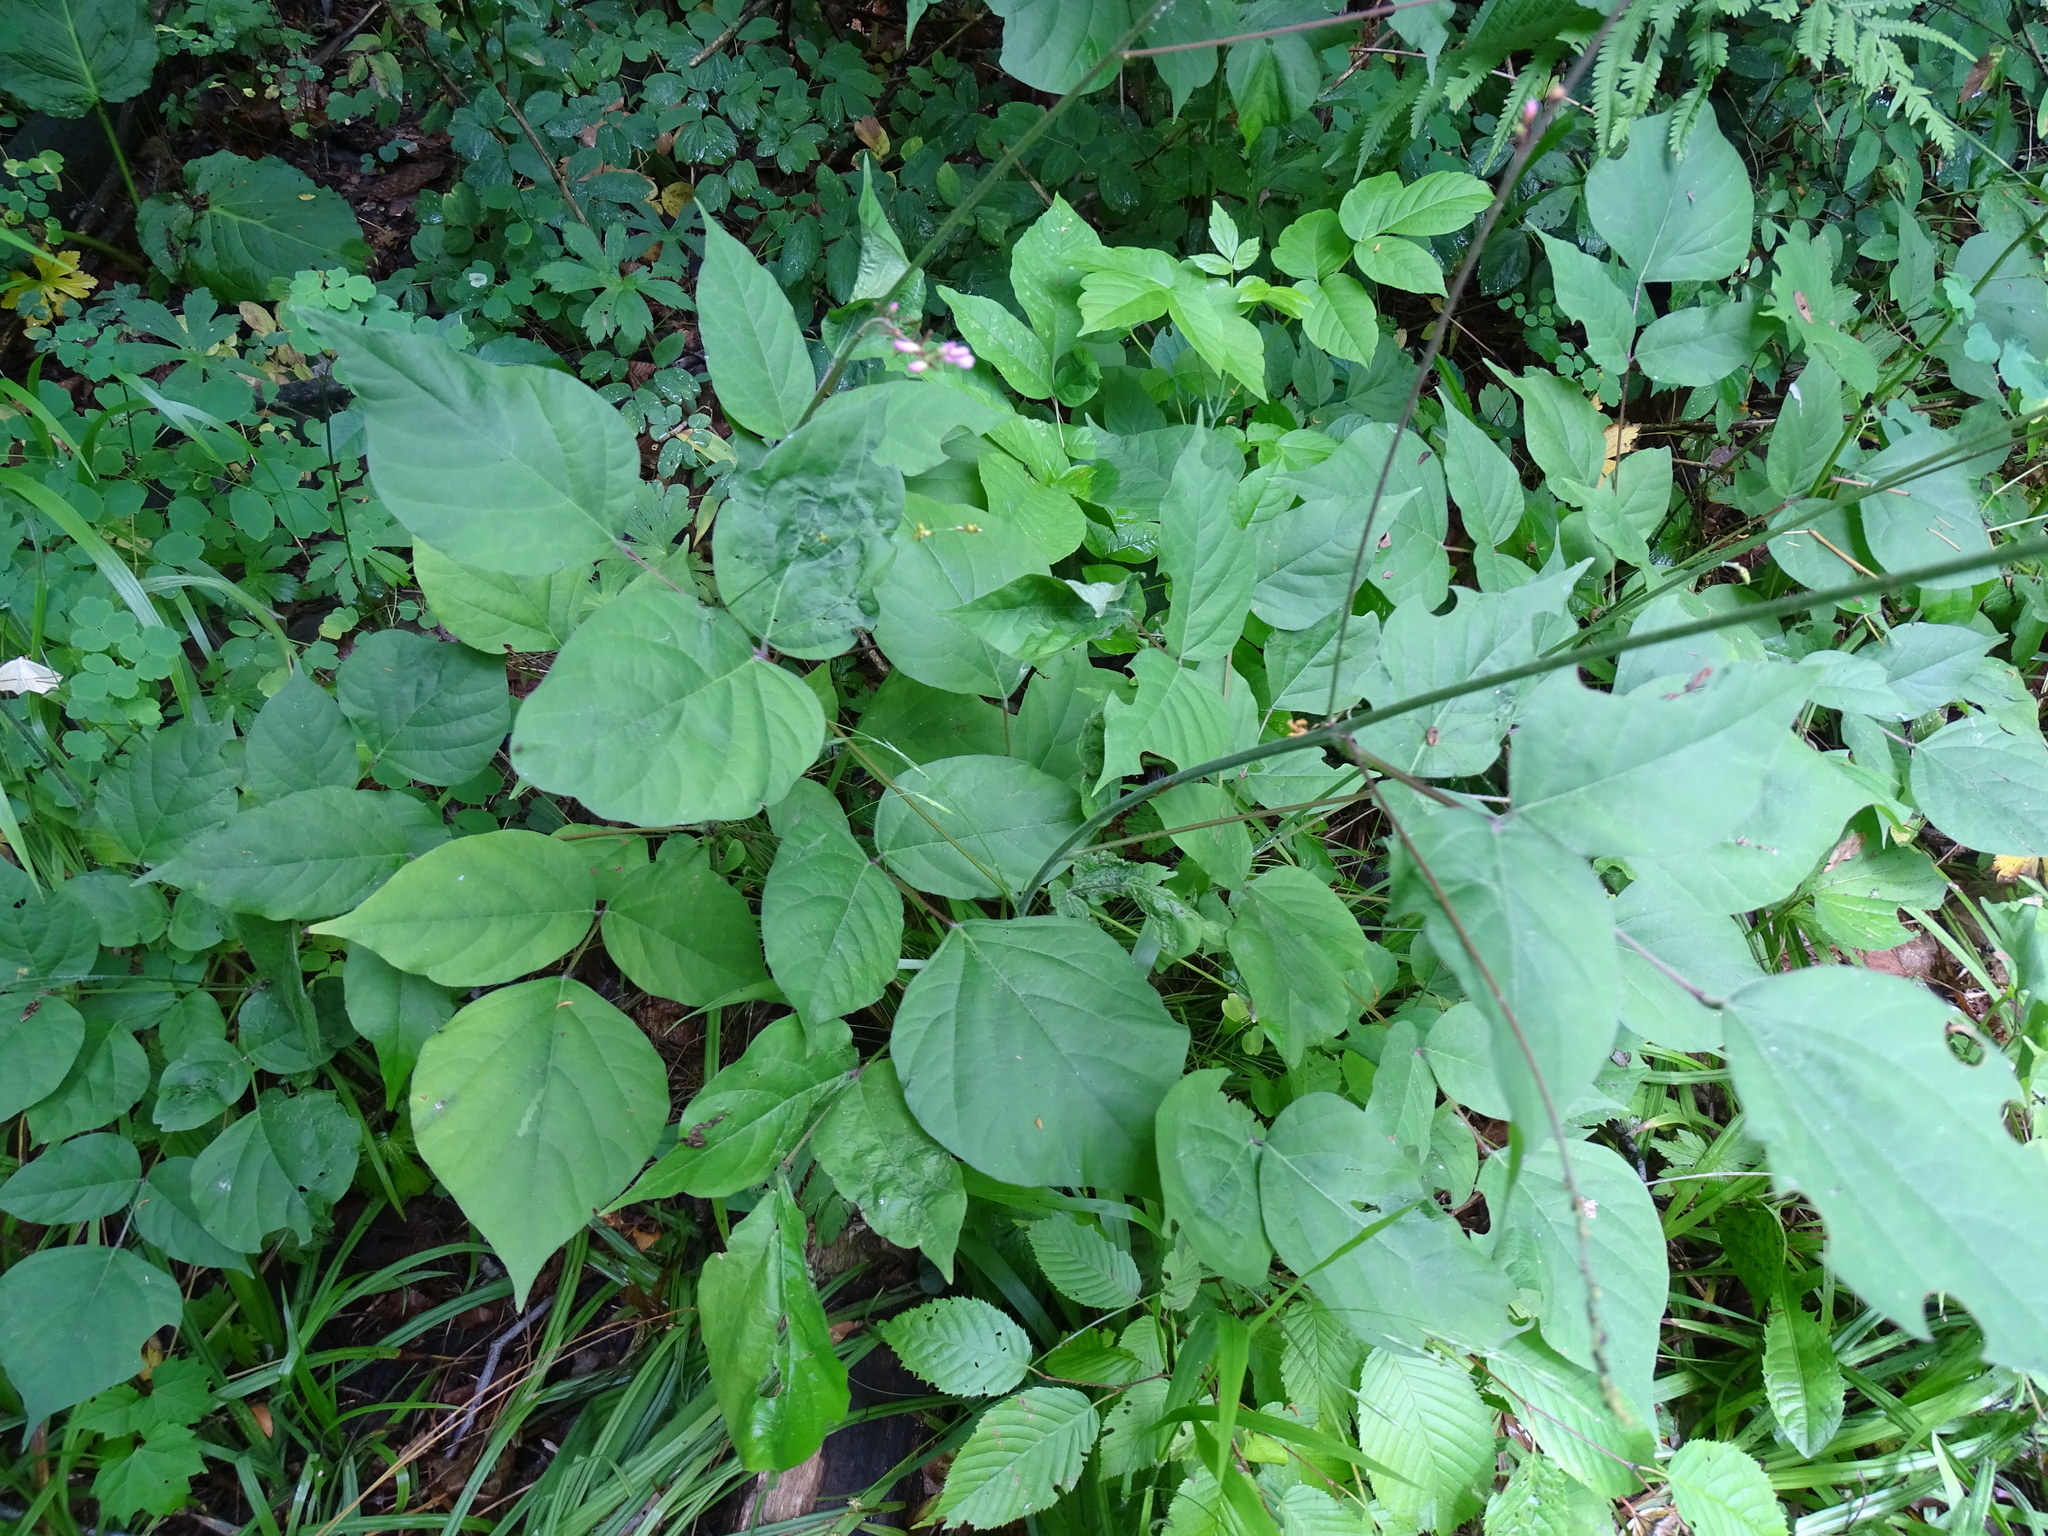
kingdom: Plantae
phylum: Tracheophyta
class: Magnoliopsida
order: Fabales
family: Fabaceae
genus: Hylodesmum
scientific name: Hylodesmum glutinosum
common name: Clustered-leaved tick-trefoil
